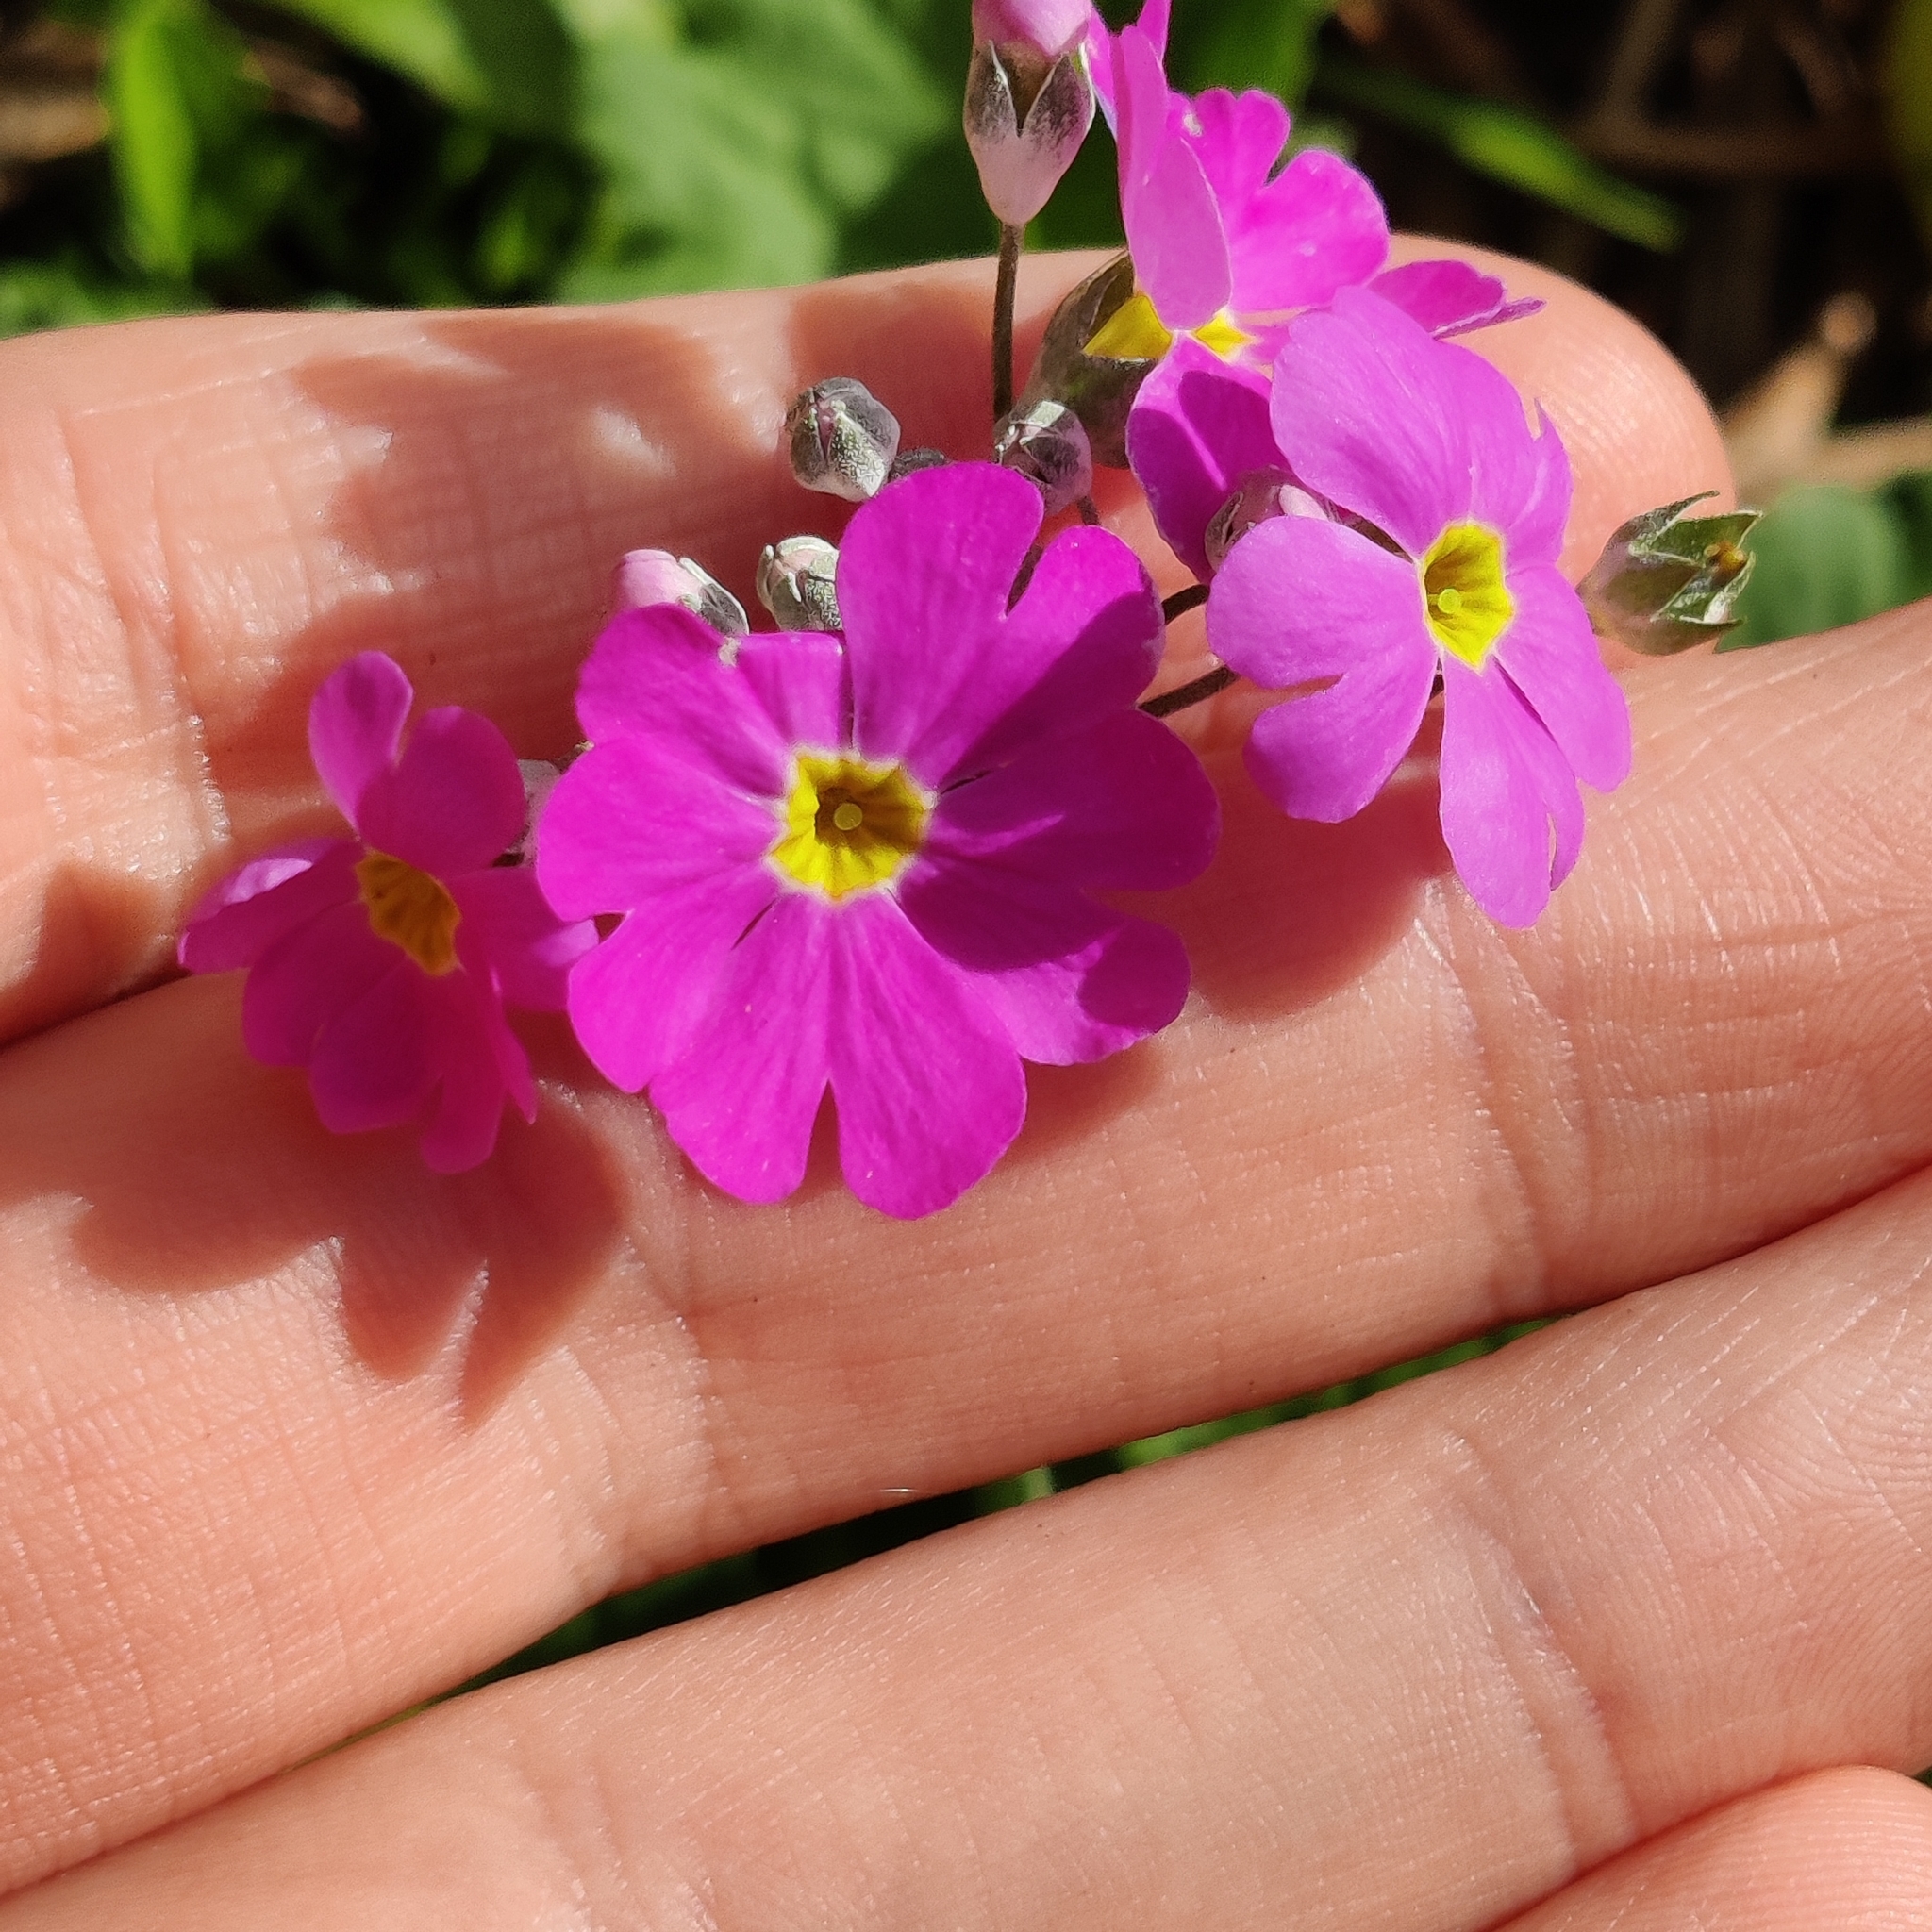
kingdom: Plantae
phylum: Tracheophyta
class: Magnoliopsida
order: Ericales
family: Primulaceae
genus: Primula
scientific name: Primula malacoides
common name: Baby primrose
